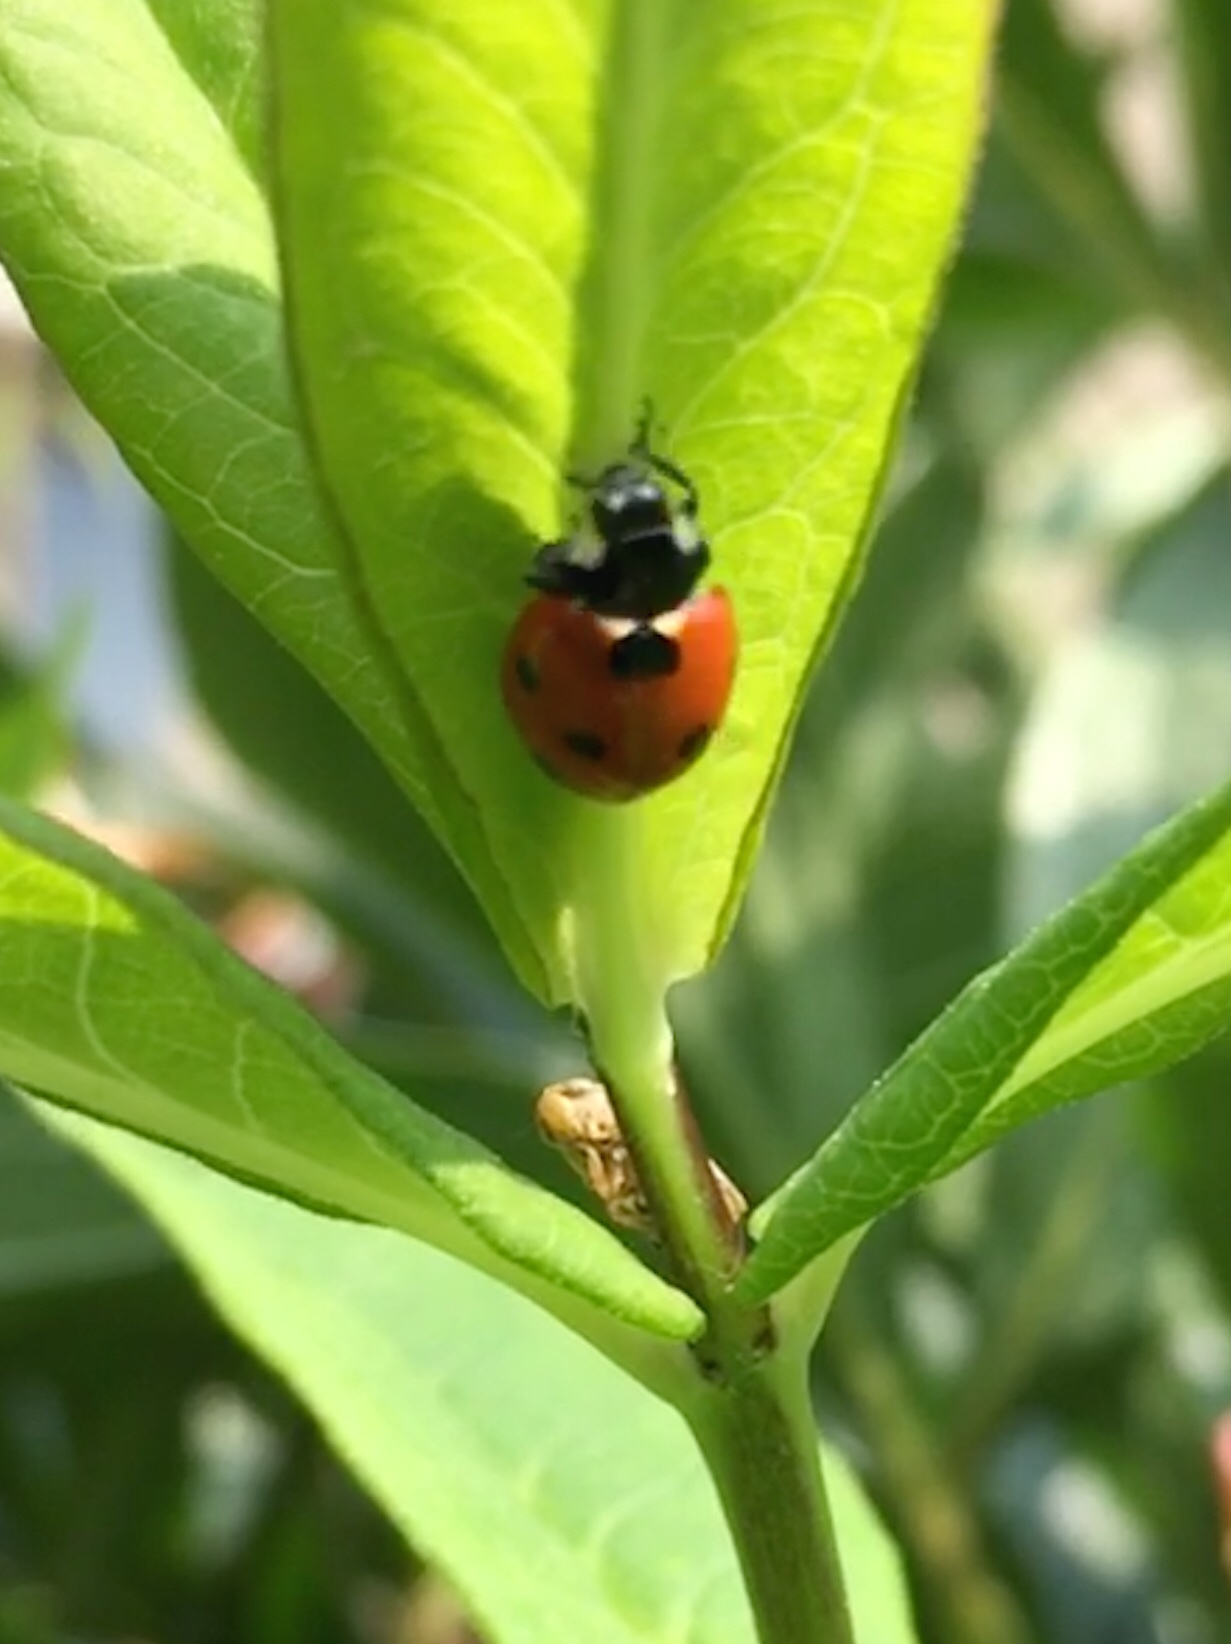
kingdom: Animalia
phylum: Arthropoda
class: Insecta
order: Coleoptera
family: Coccinellidae
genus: Coccinella
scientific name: Coccinella septempunctata
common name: Sevenspotted lady beetle
